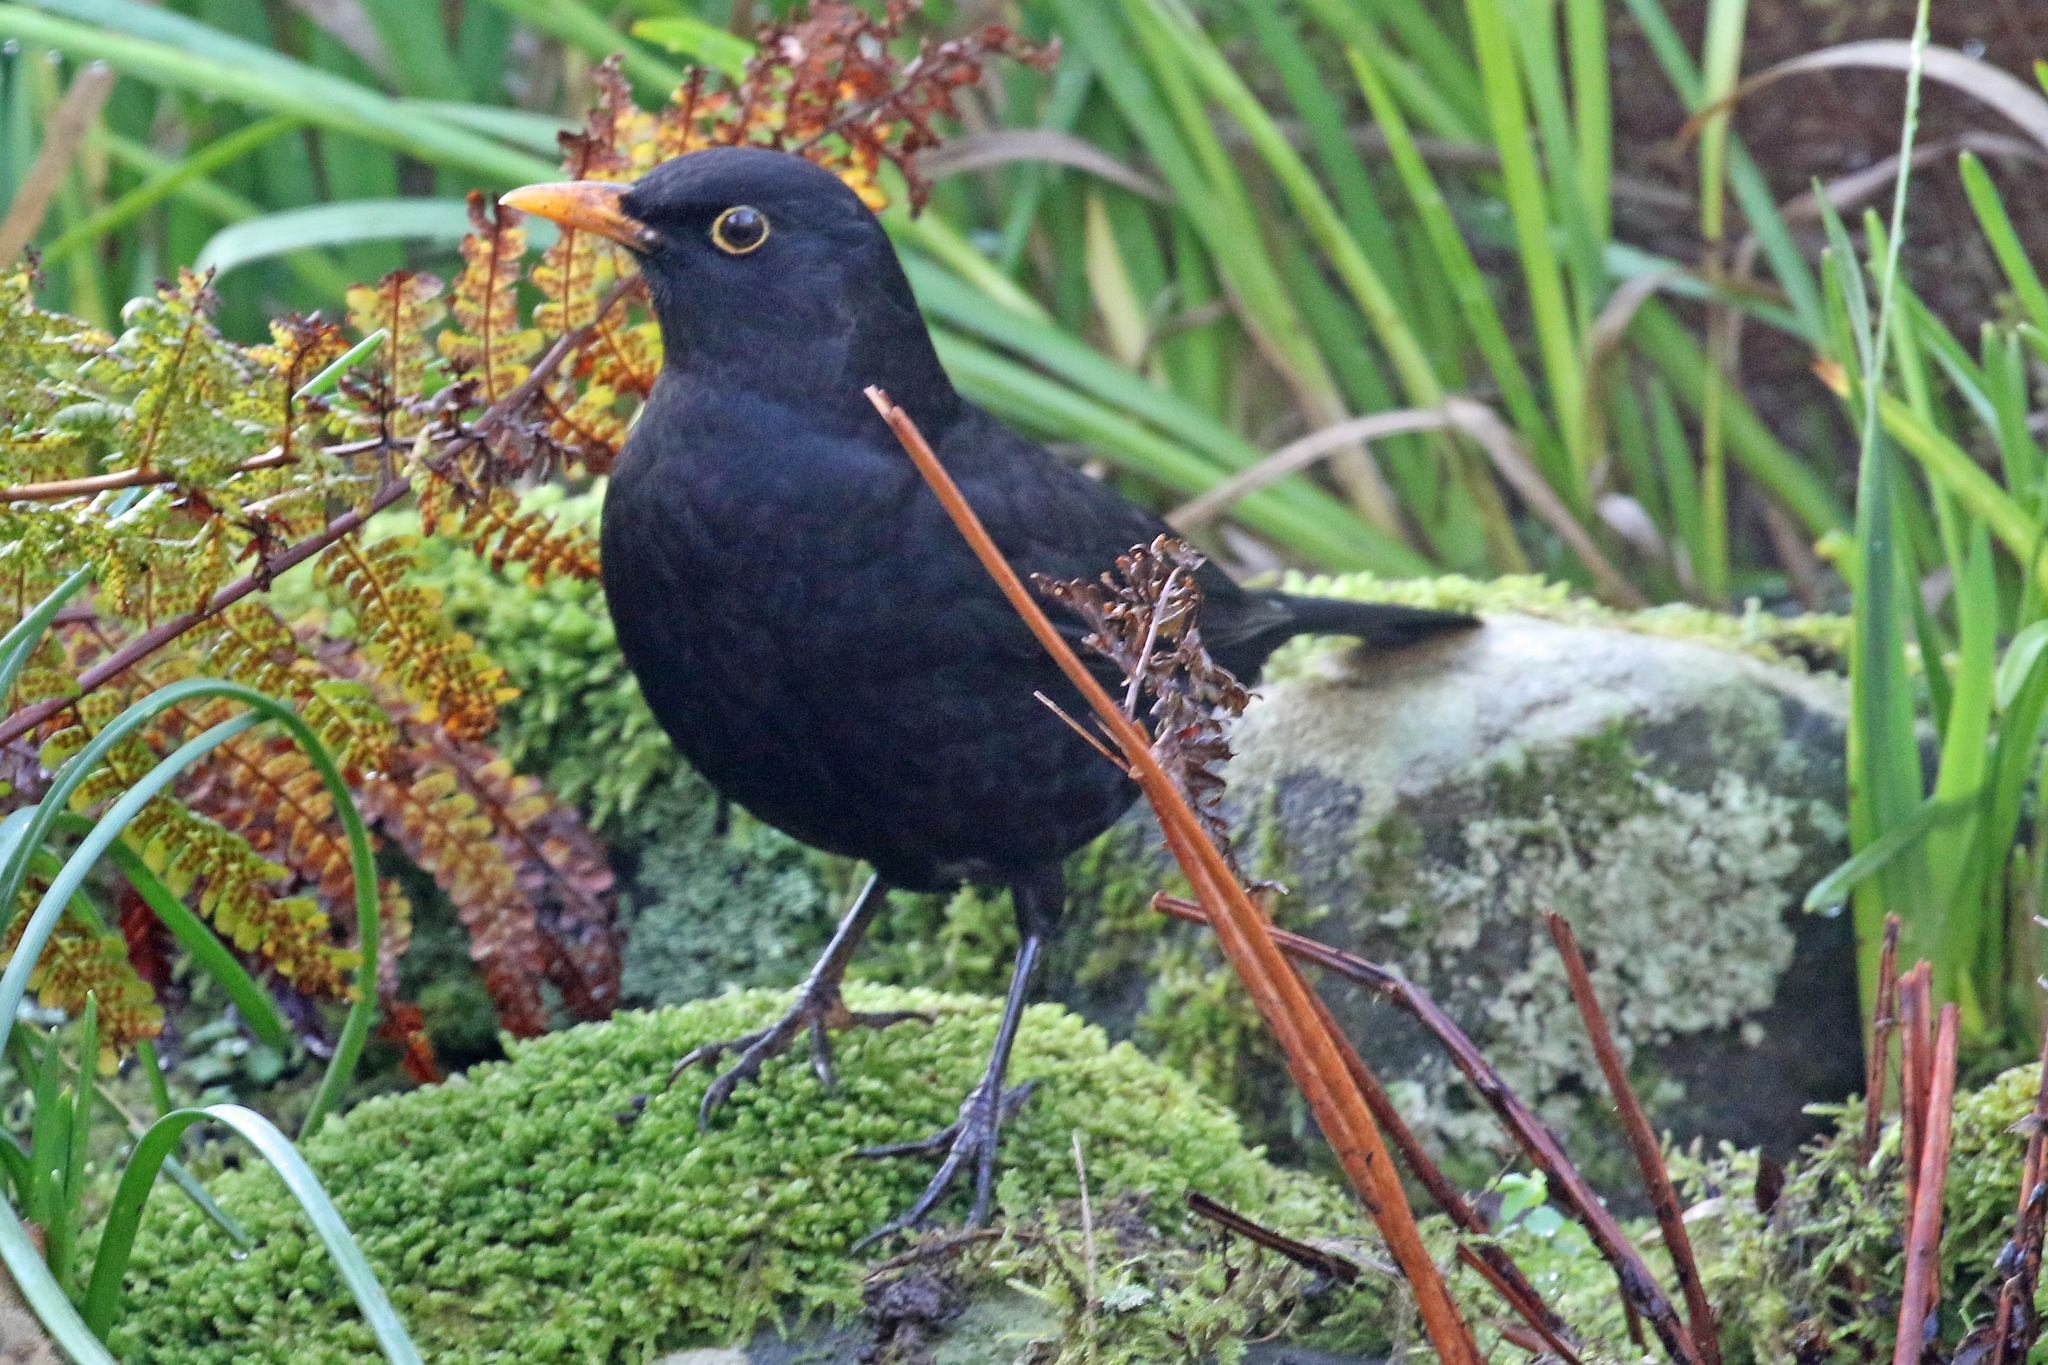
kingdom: Animalia
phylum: Chordata
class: Aves
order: Passeriformes
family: Turdidae
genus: Turdus
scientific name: Turdus merula
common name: Common blackbird
